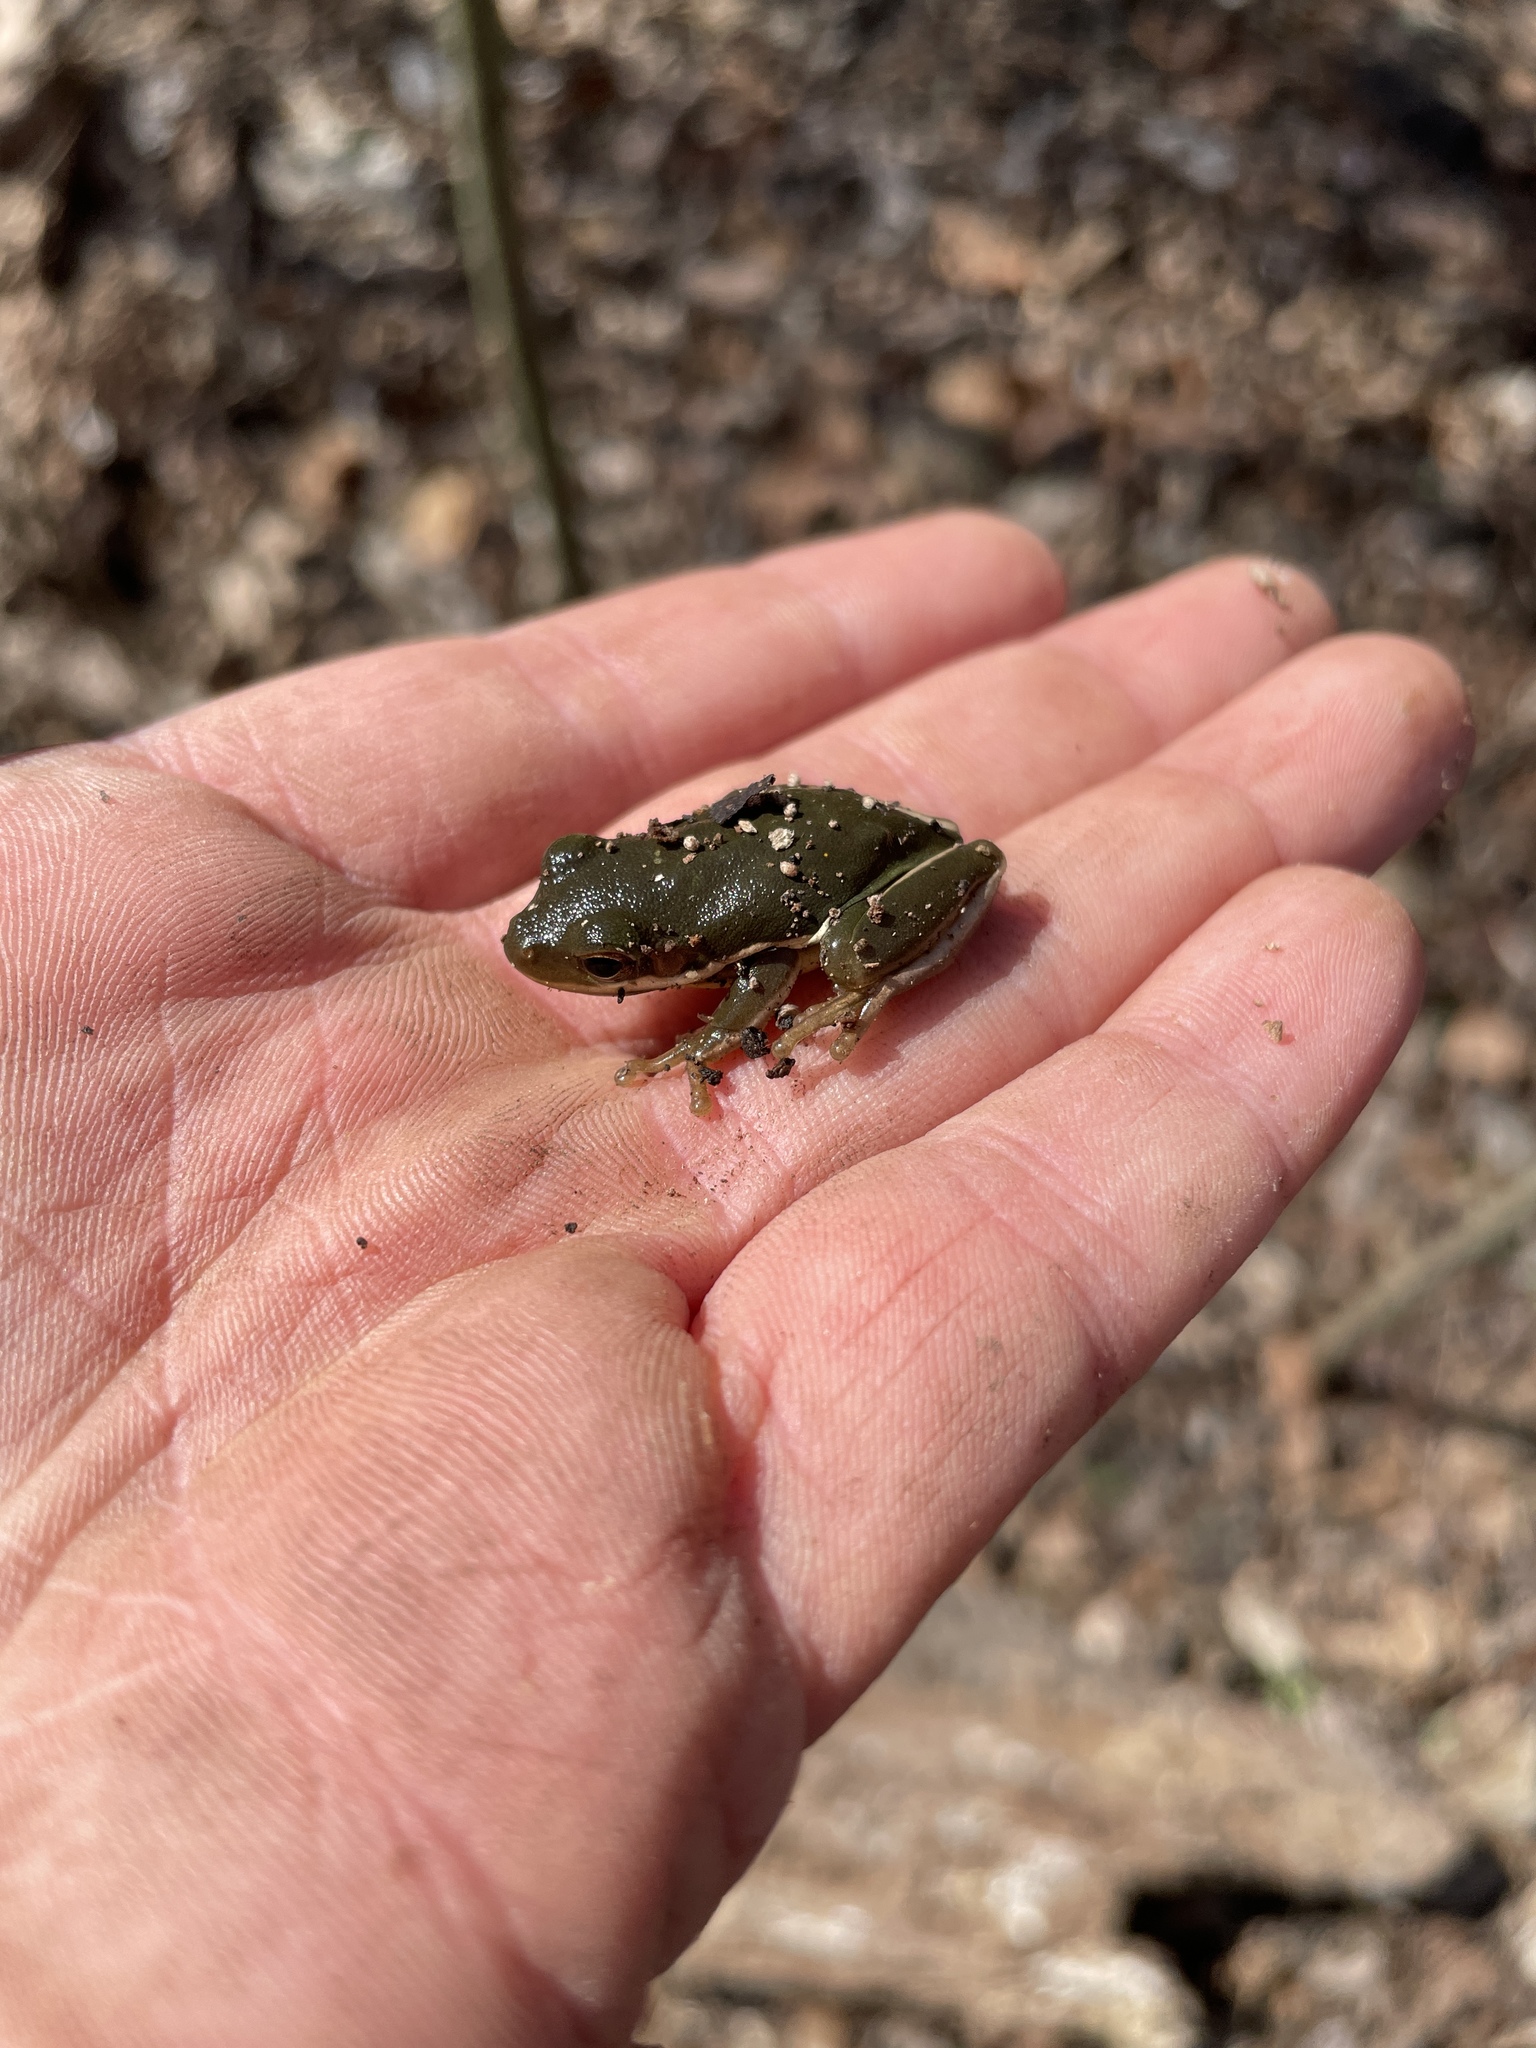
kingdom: Animalia
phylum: Chordata
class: Amphibia
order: Anura
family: Hylidae
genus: Dryophytes
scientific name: Dryophytes cinereus
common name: Green treefrog
